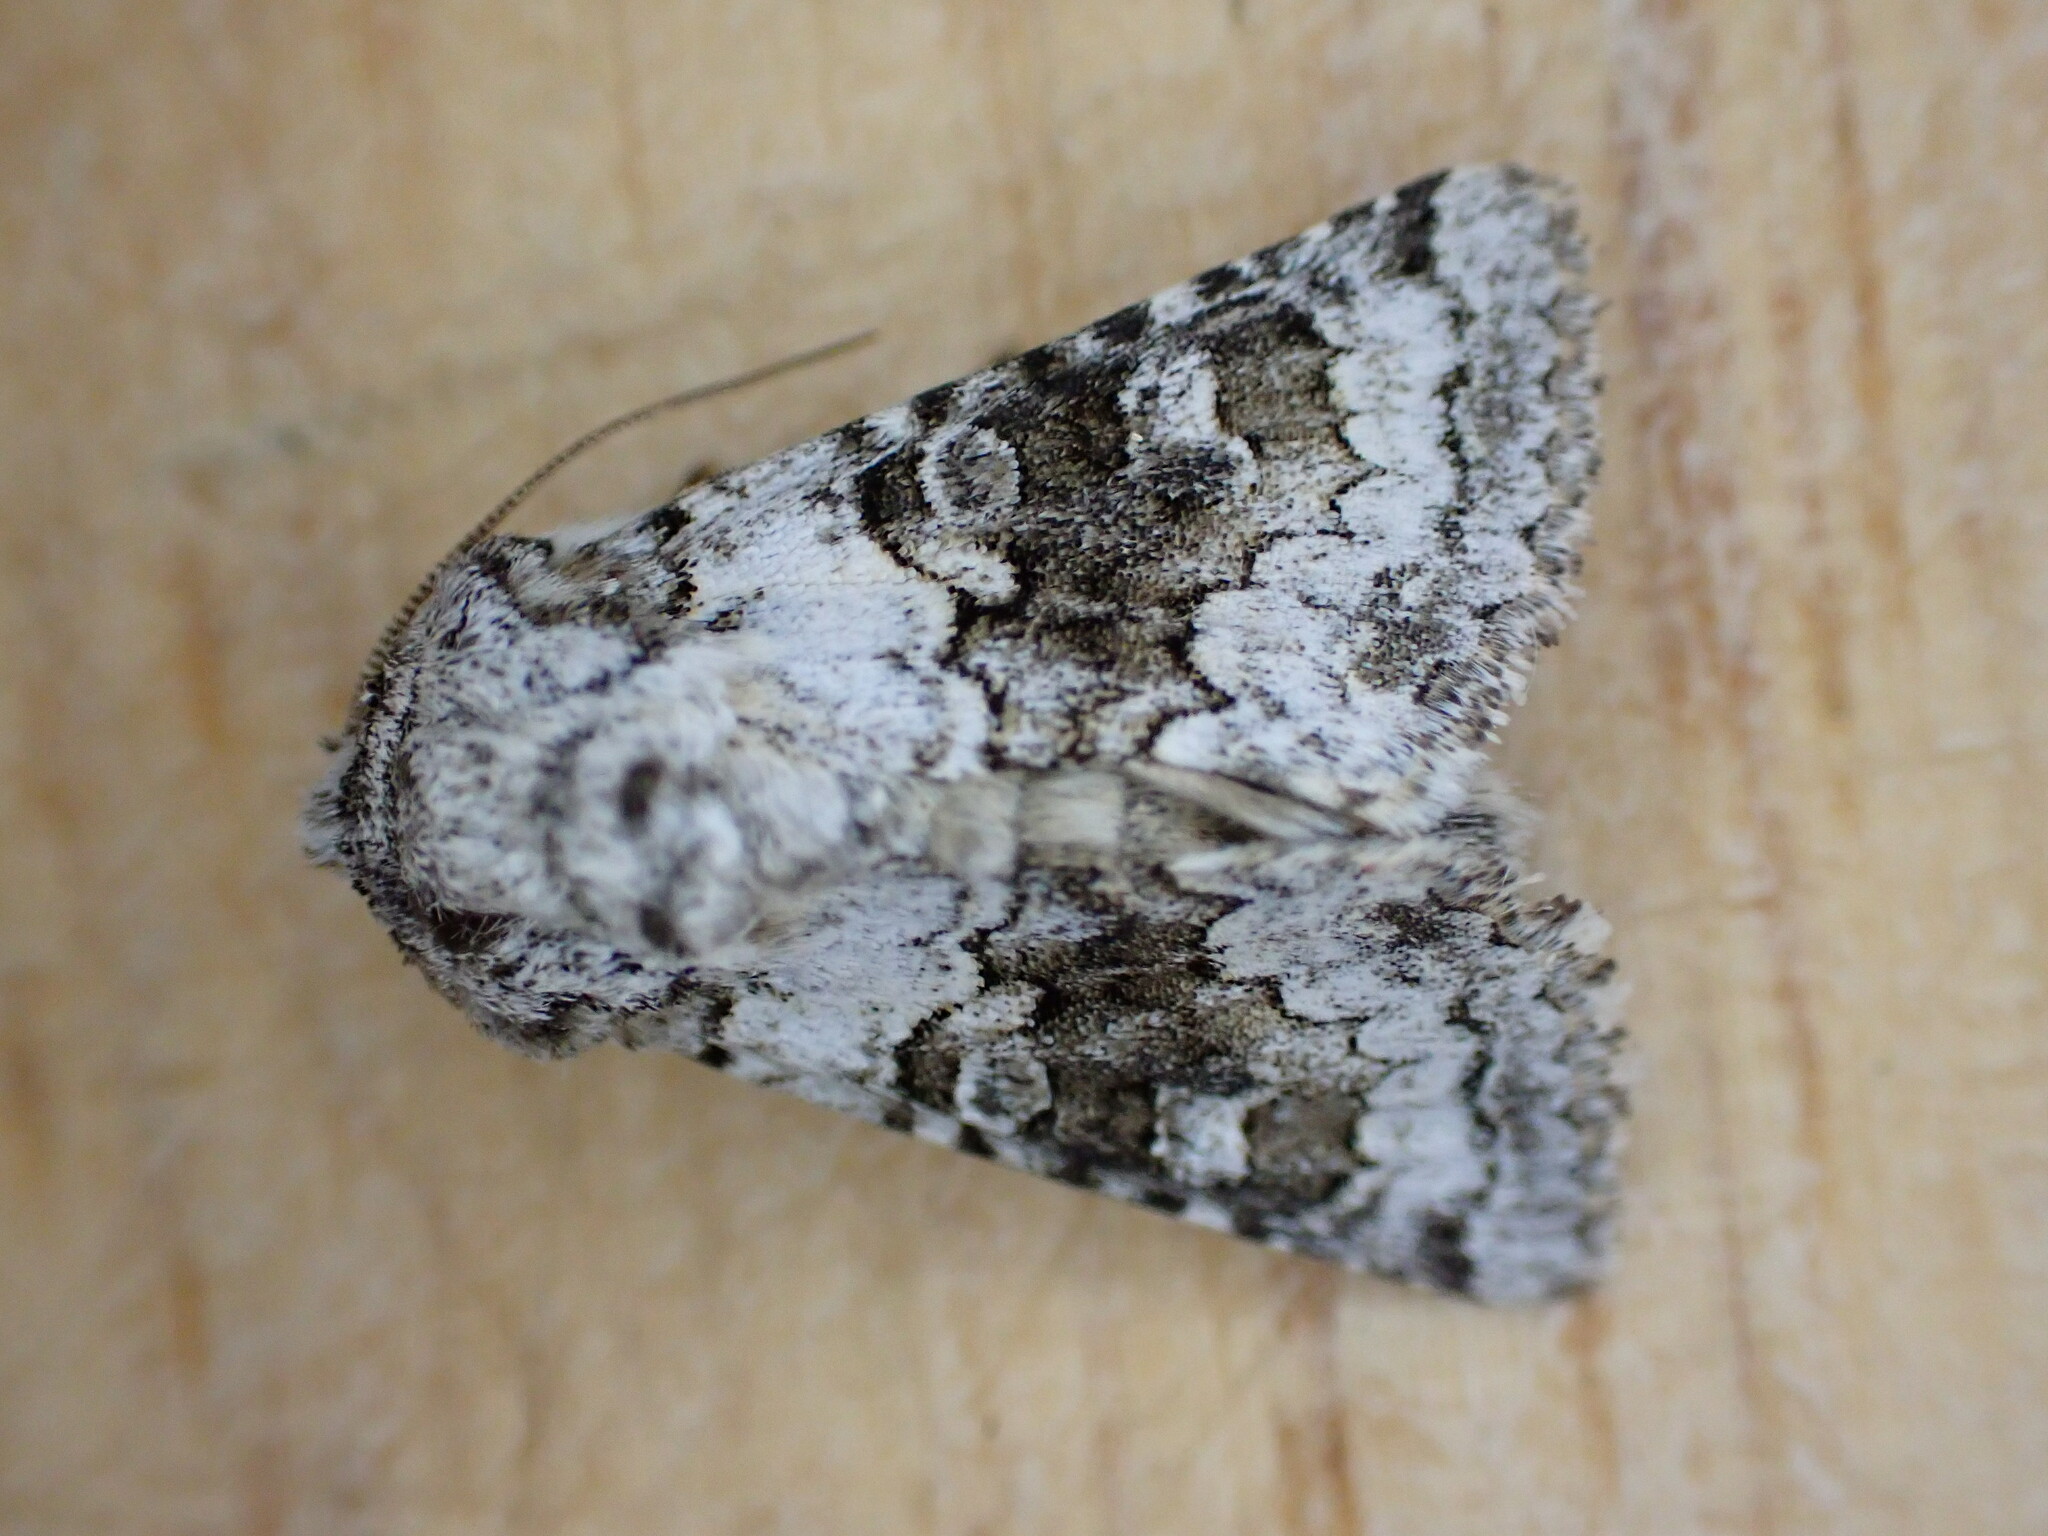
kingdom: Animalia
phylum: Arthropoda
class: Insecta
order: Lepidoptera
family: Noctuidae
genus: Hecatera
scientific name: Hecatera bicolorata
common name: Broad-barred white
